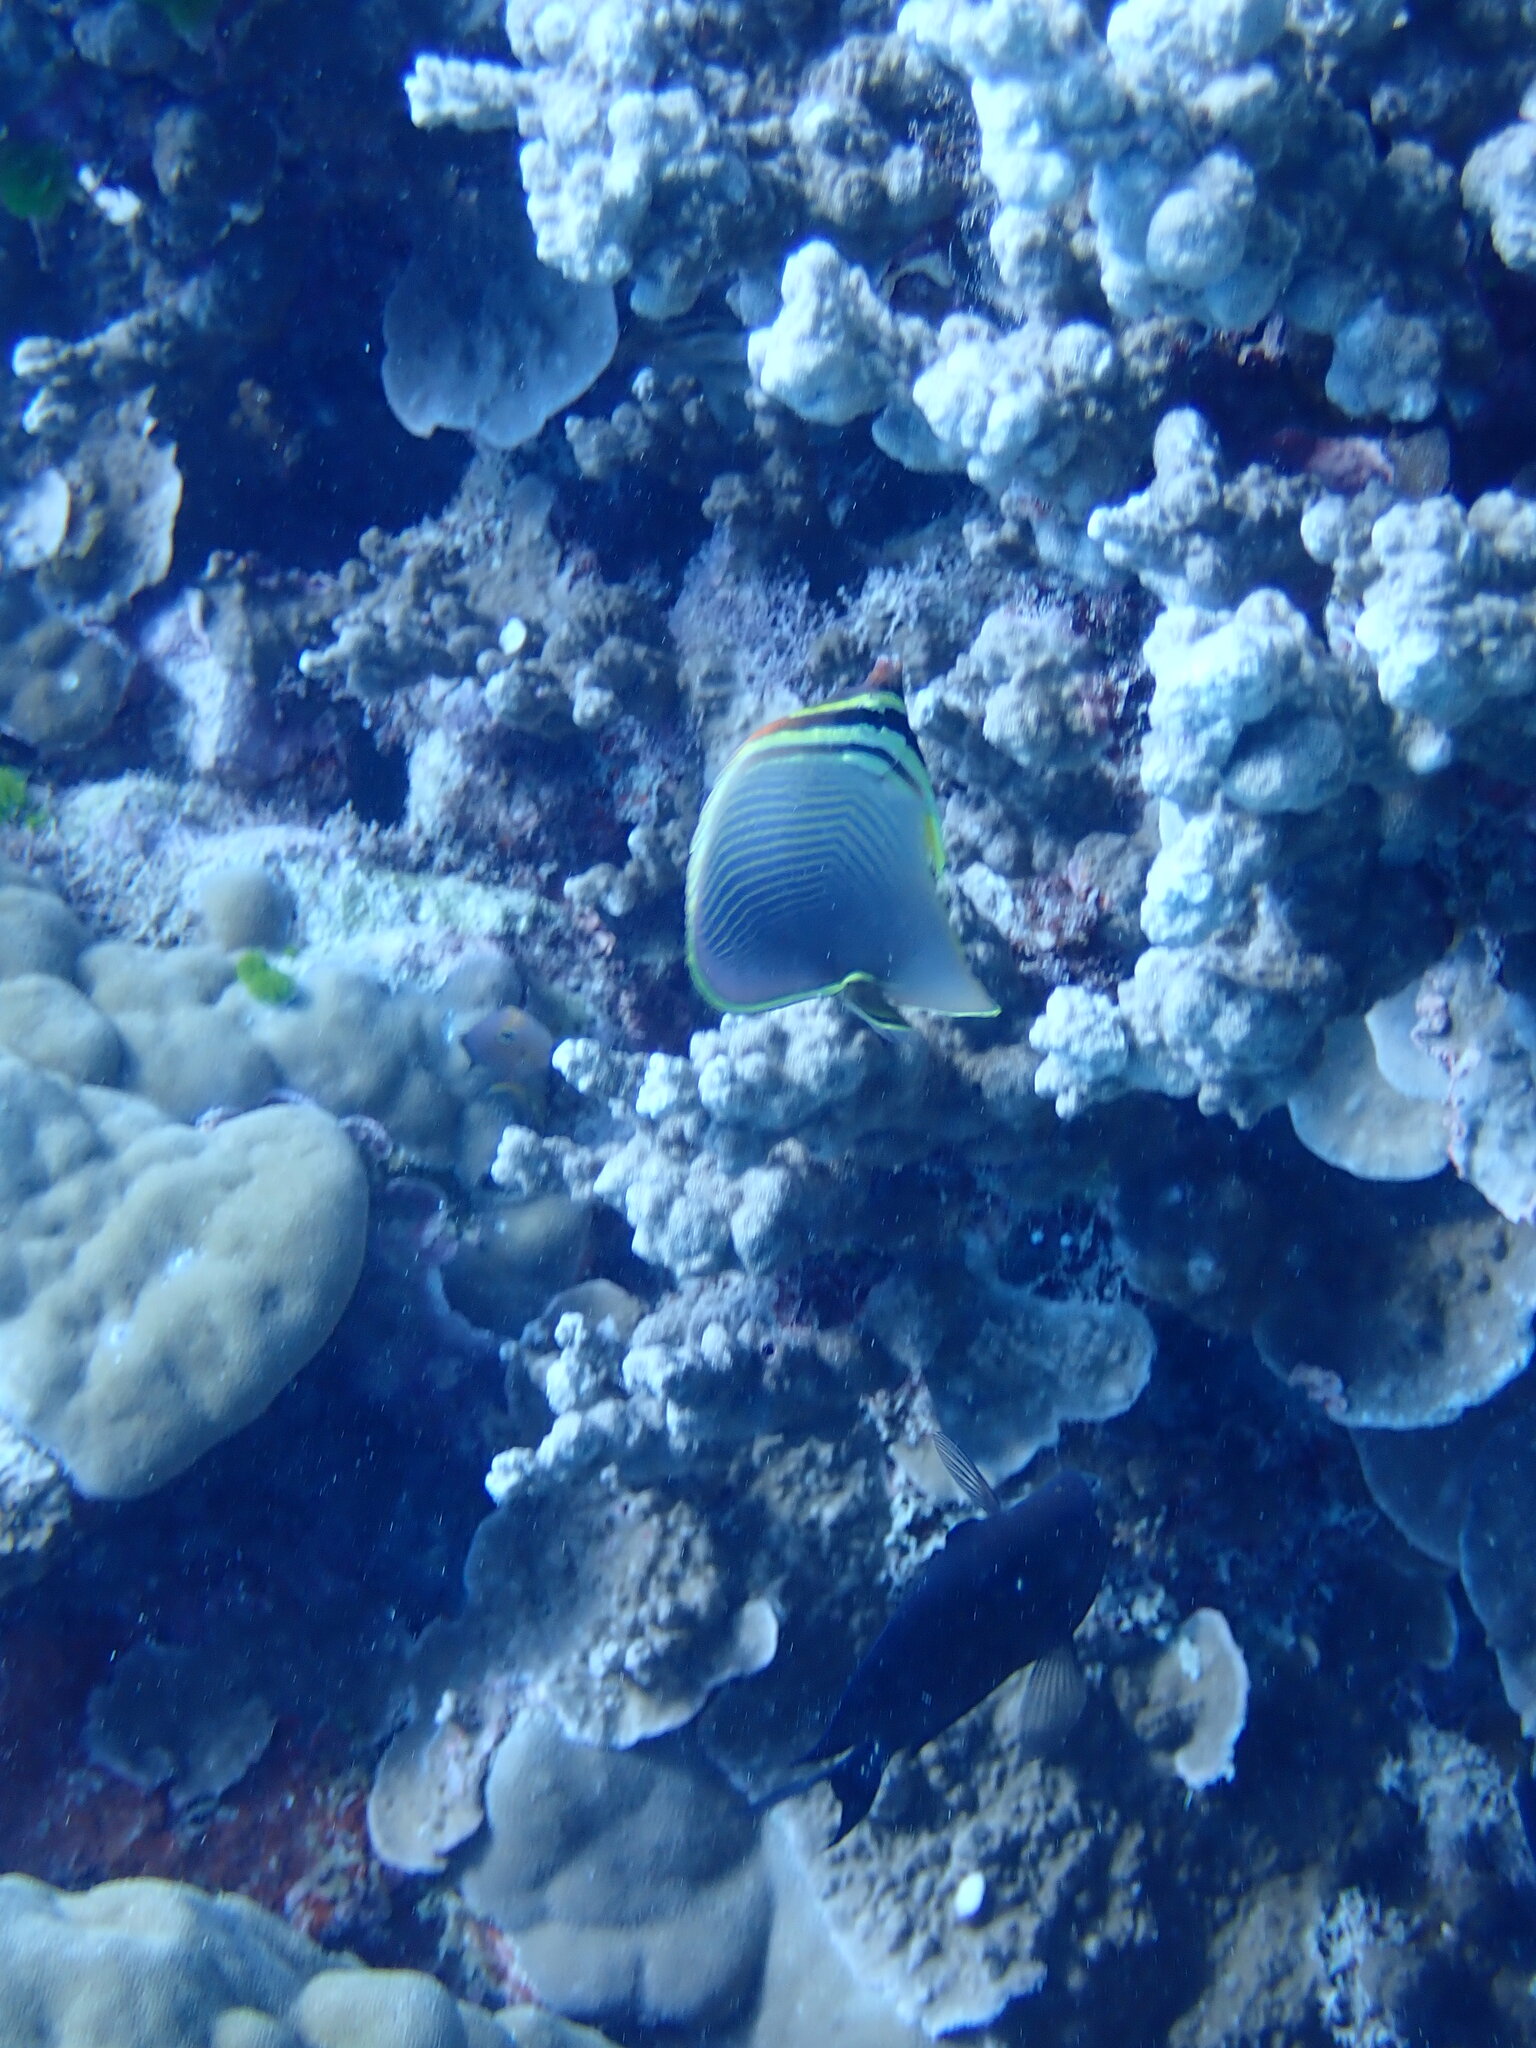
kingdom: Animalia
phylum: Chordata
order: Perciformes
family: Chaetodontidae
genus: Chaetodon
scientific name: Chaetodon baronessa
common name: Triangular butterflyfish
